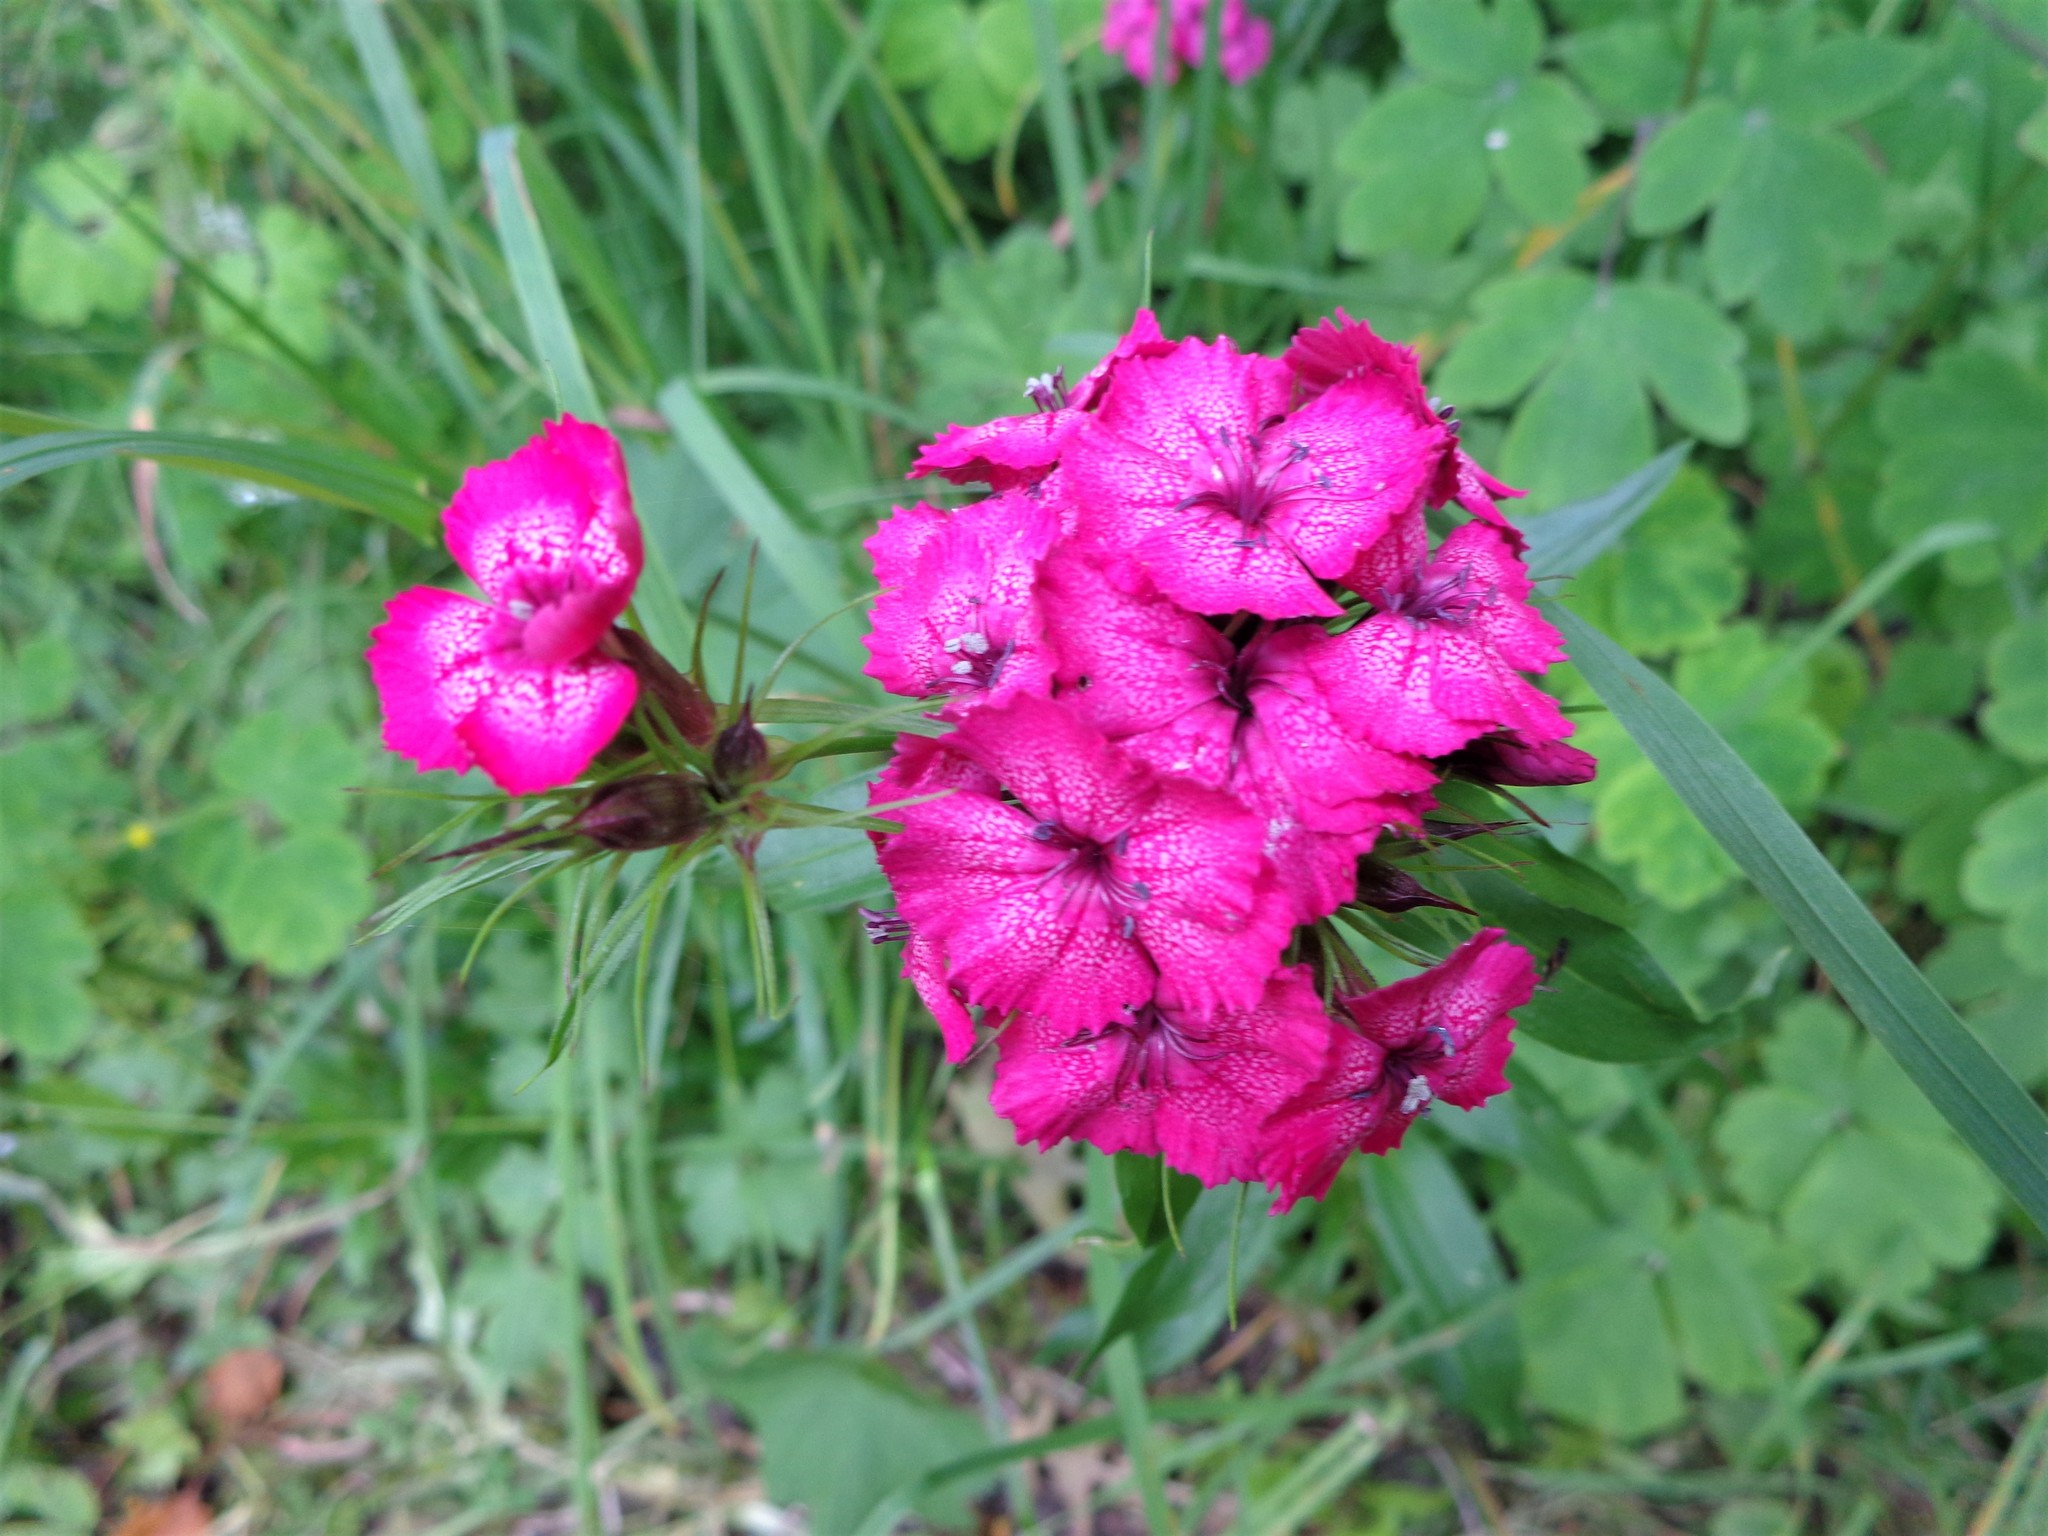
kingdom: Plantae
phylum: Tracheophyta
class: Magnoliopsida
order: Caryophyllales
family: Caryophyllaceae
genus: Dianthus
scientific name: Dianthus barbatus
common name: Sweet-william
